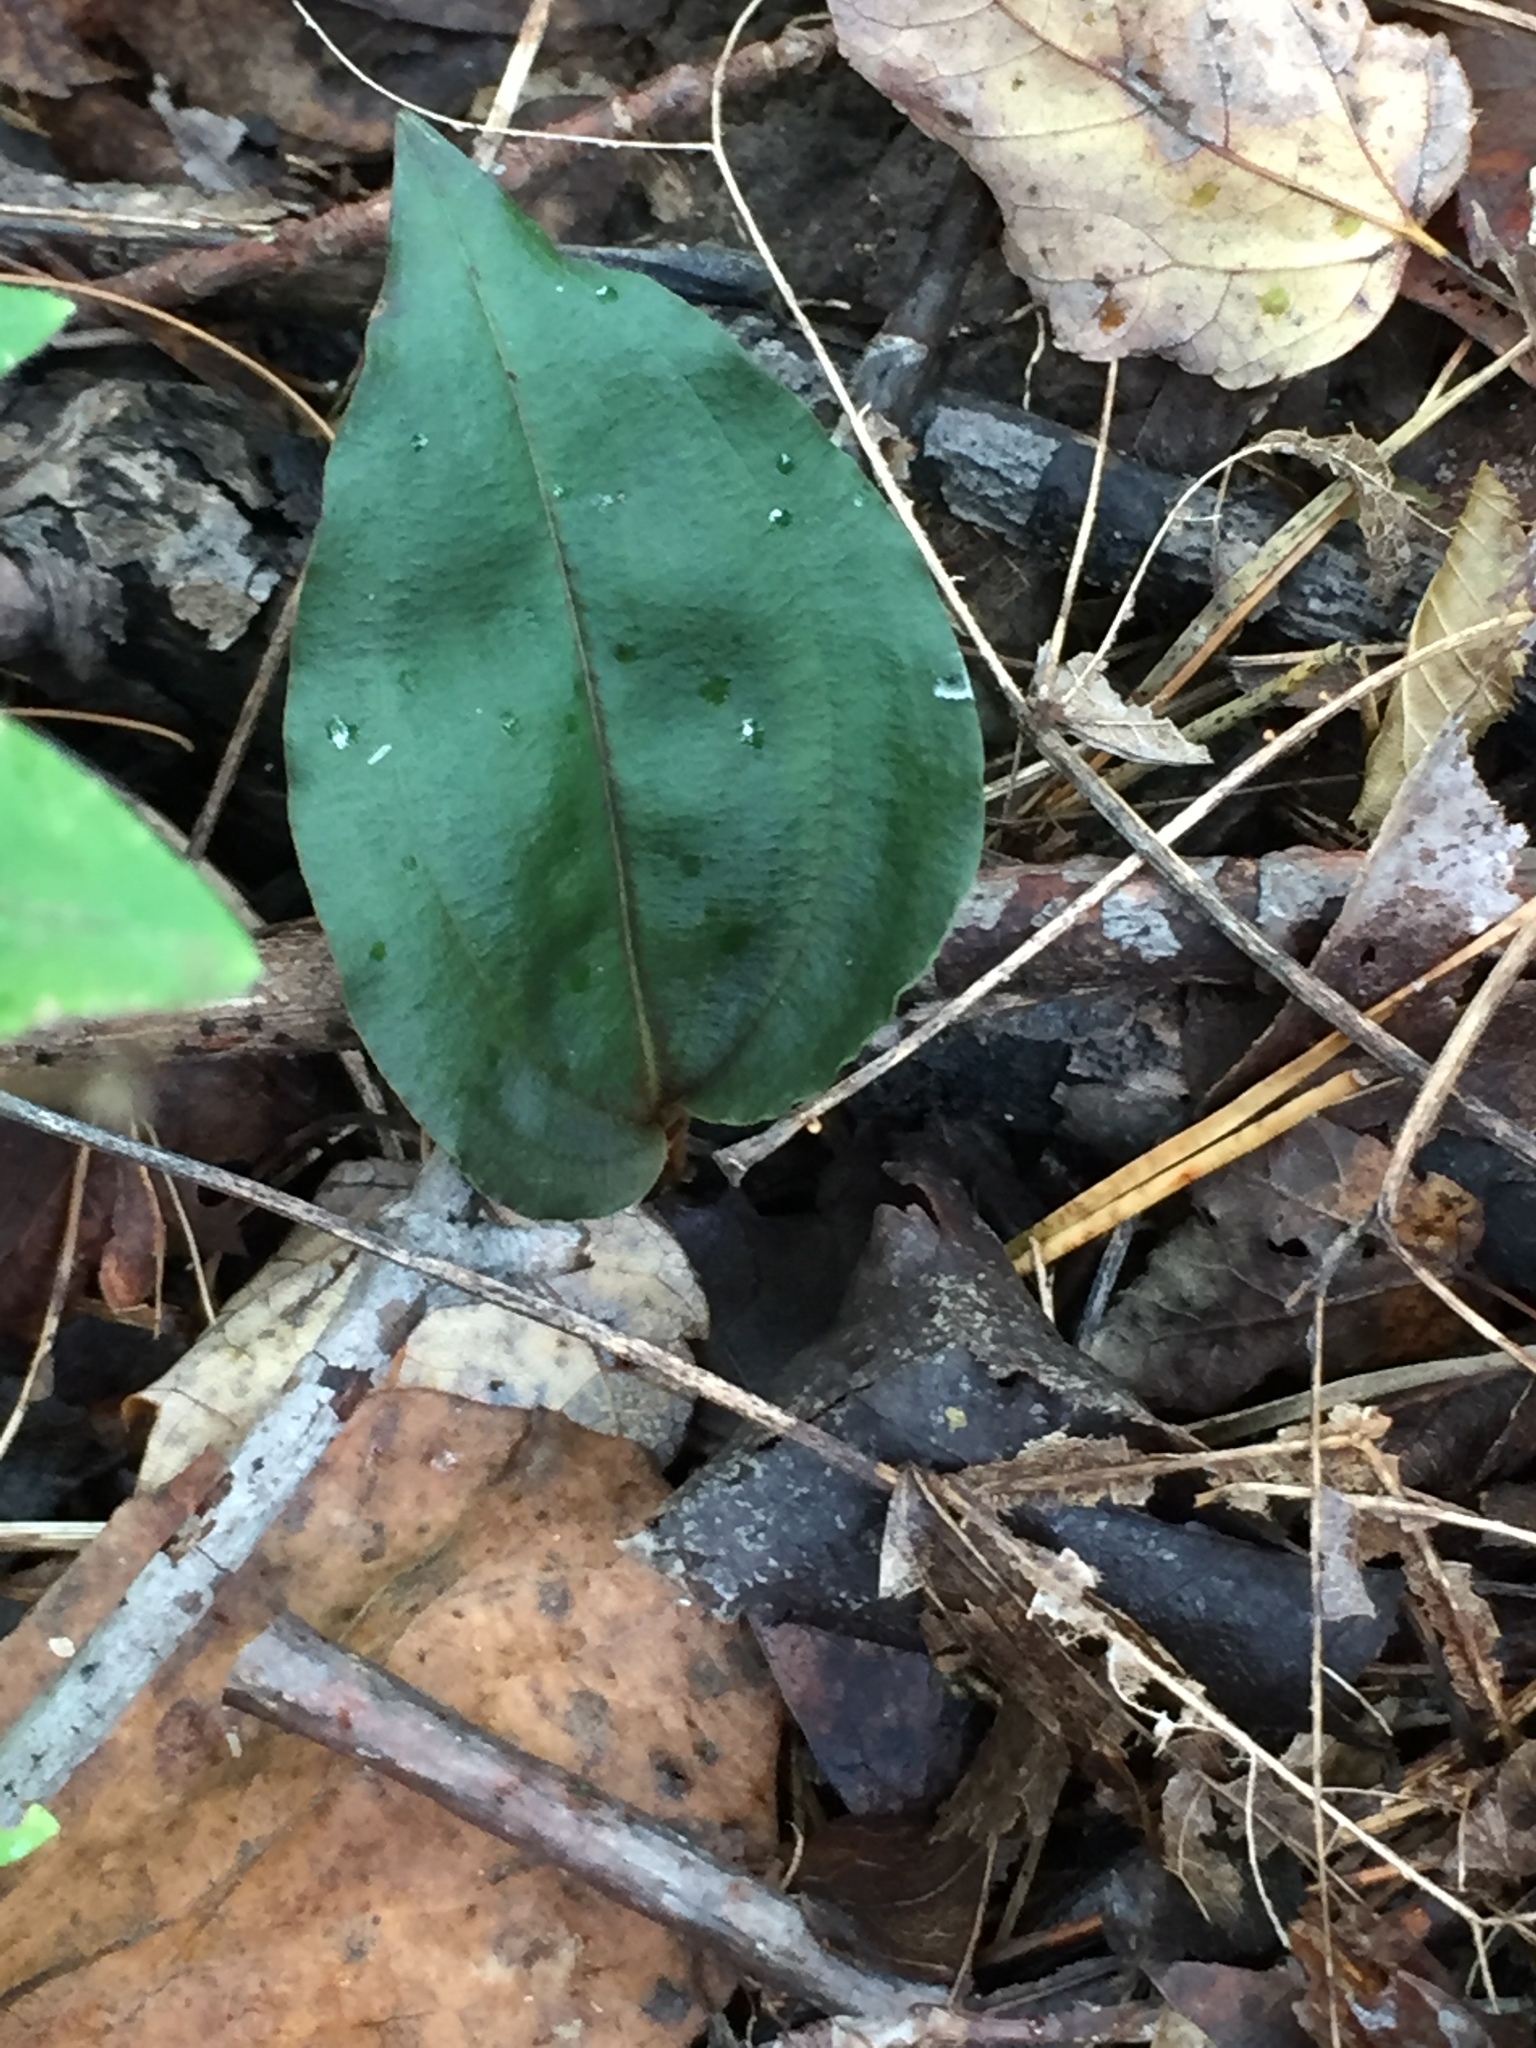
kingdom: Plantae
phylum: Tracheophyta
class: Liliopsida
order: Asparagales
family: Orchidaceae
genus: Tipularia
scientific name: Tipularia discolor
